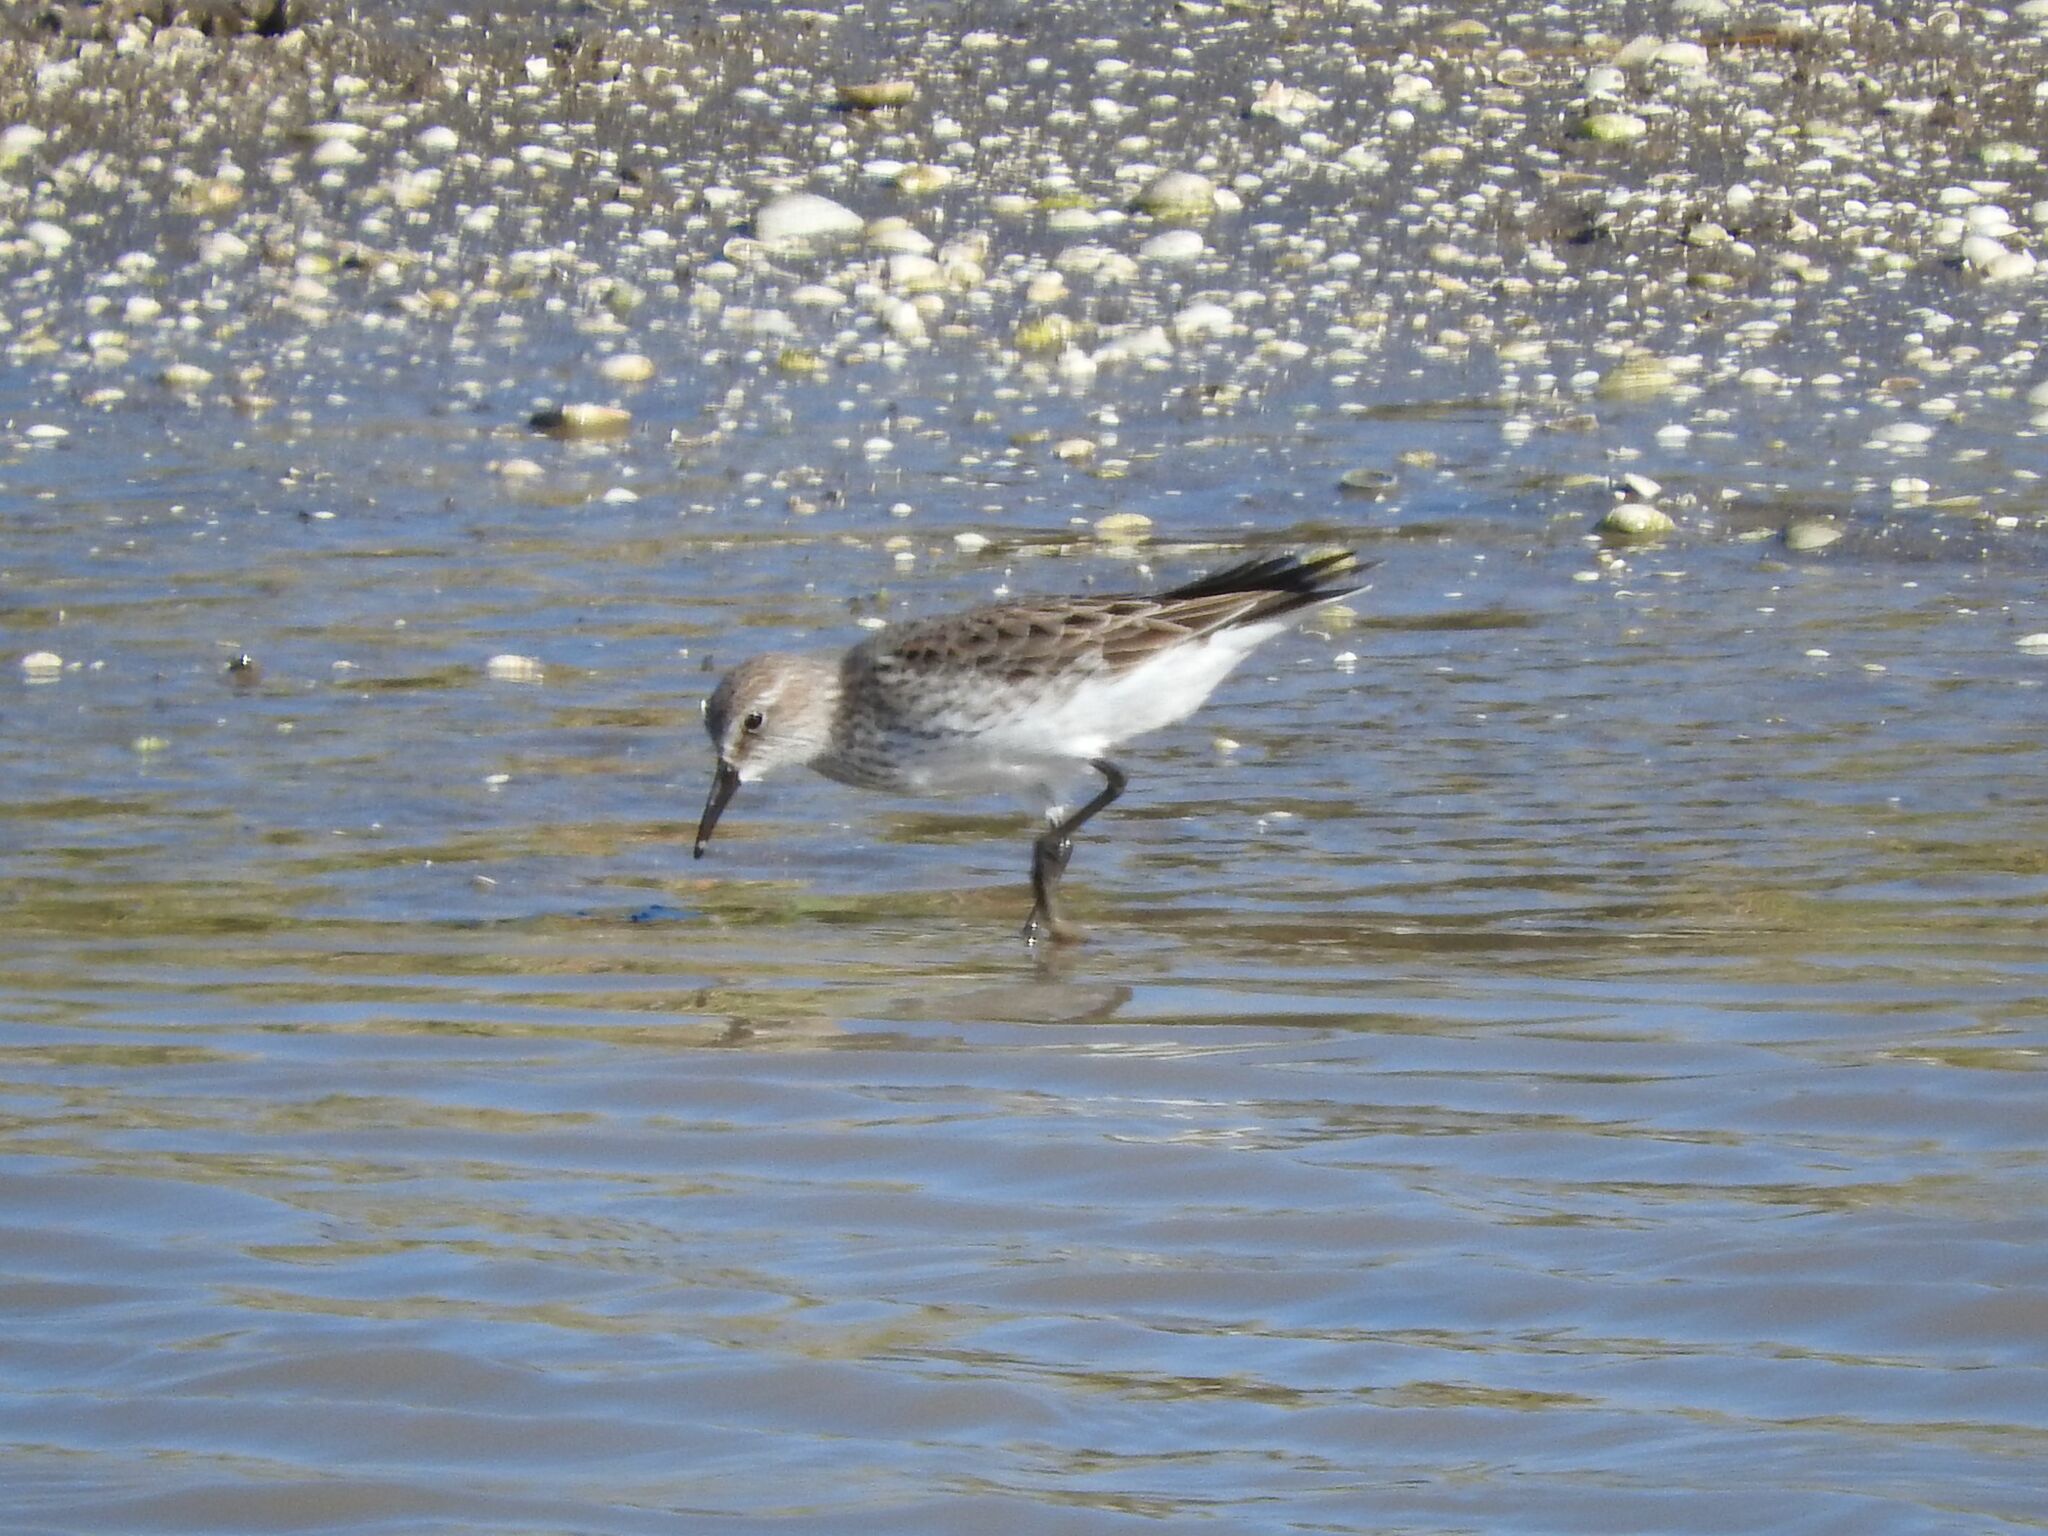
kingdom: Animalia
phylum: Chordata
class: Aves
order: Charadriiformes
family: Scolopacidae
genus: Calidris
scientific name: Calidris fuscicollis
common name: White-rumped sandpiper
